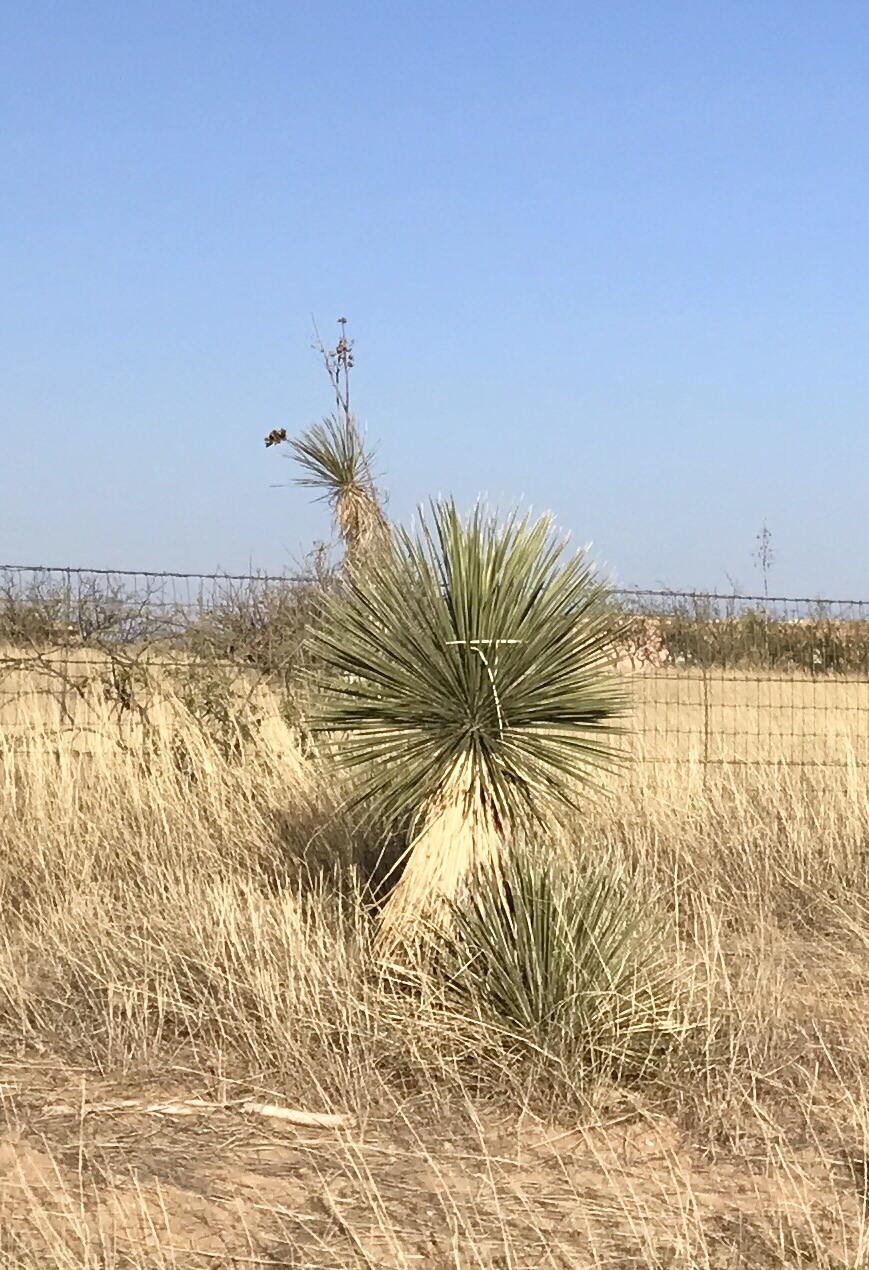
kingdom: Plantae
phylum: Tracheophyta
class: Liliopsida
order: Asparagales
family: Asparagaceae
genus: Yucca
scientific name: Yucca elata
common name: Palmella
